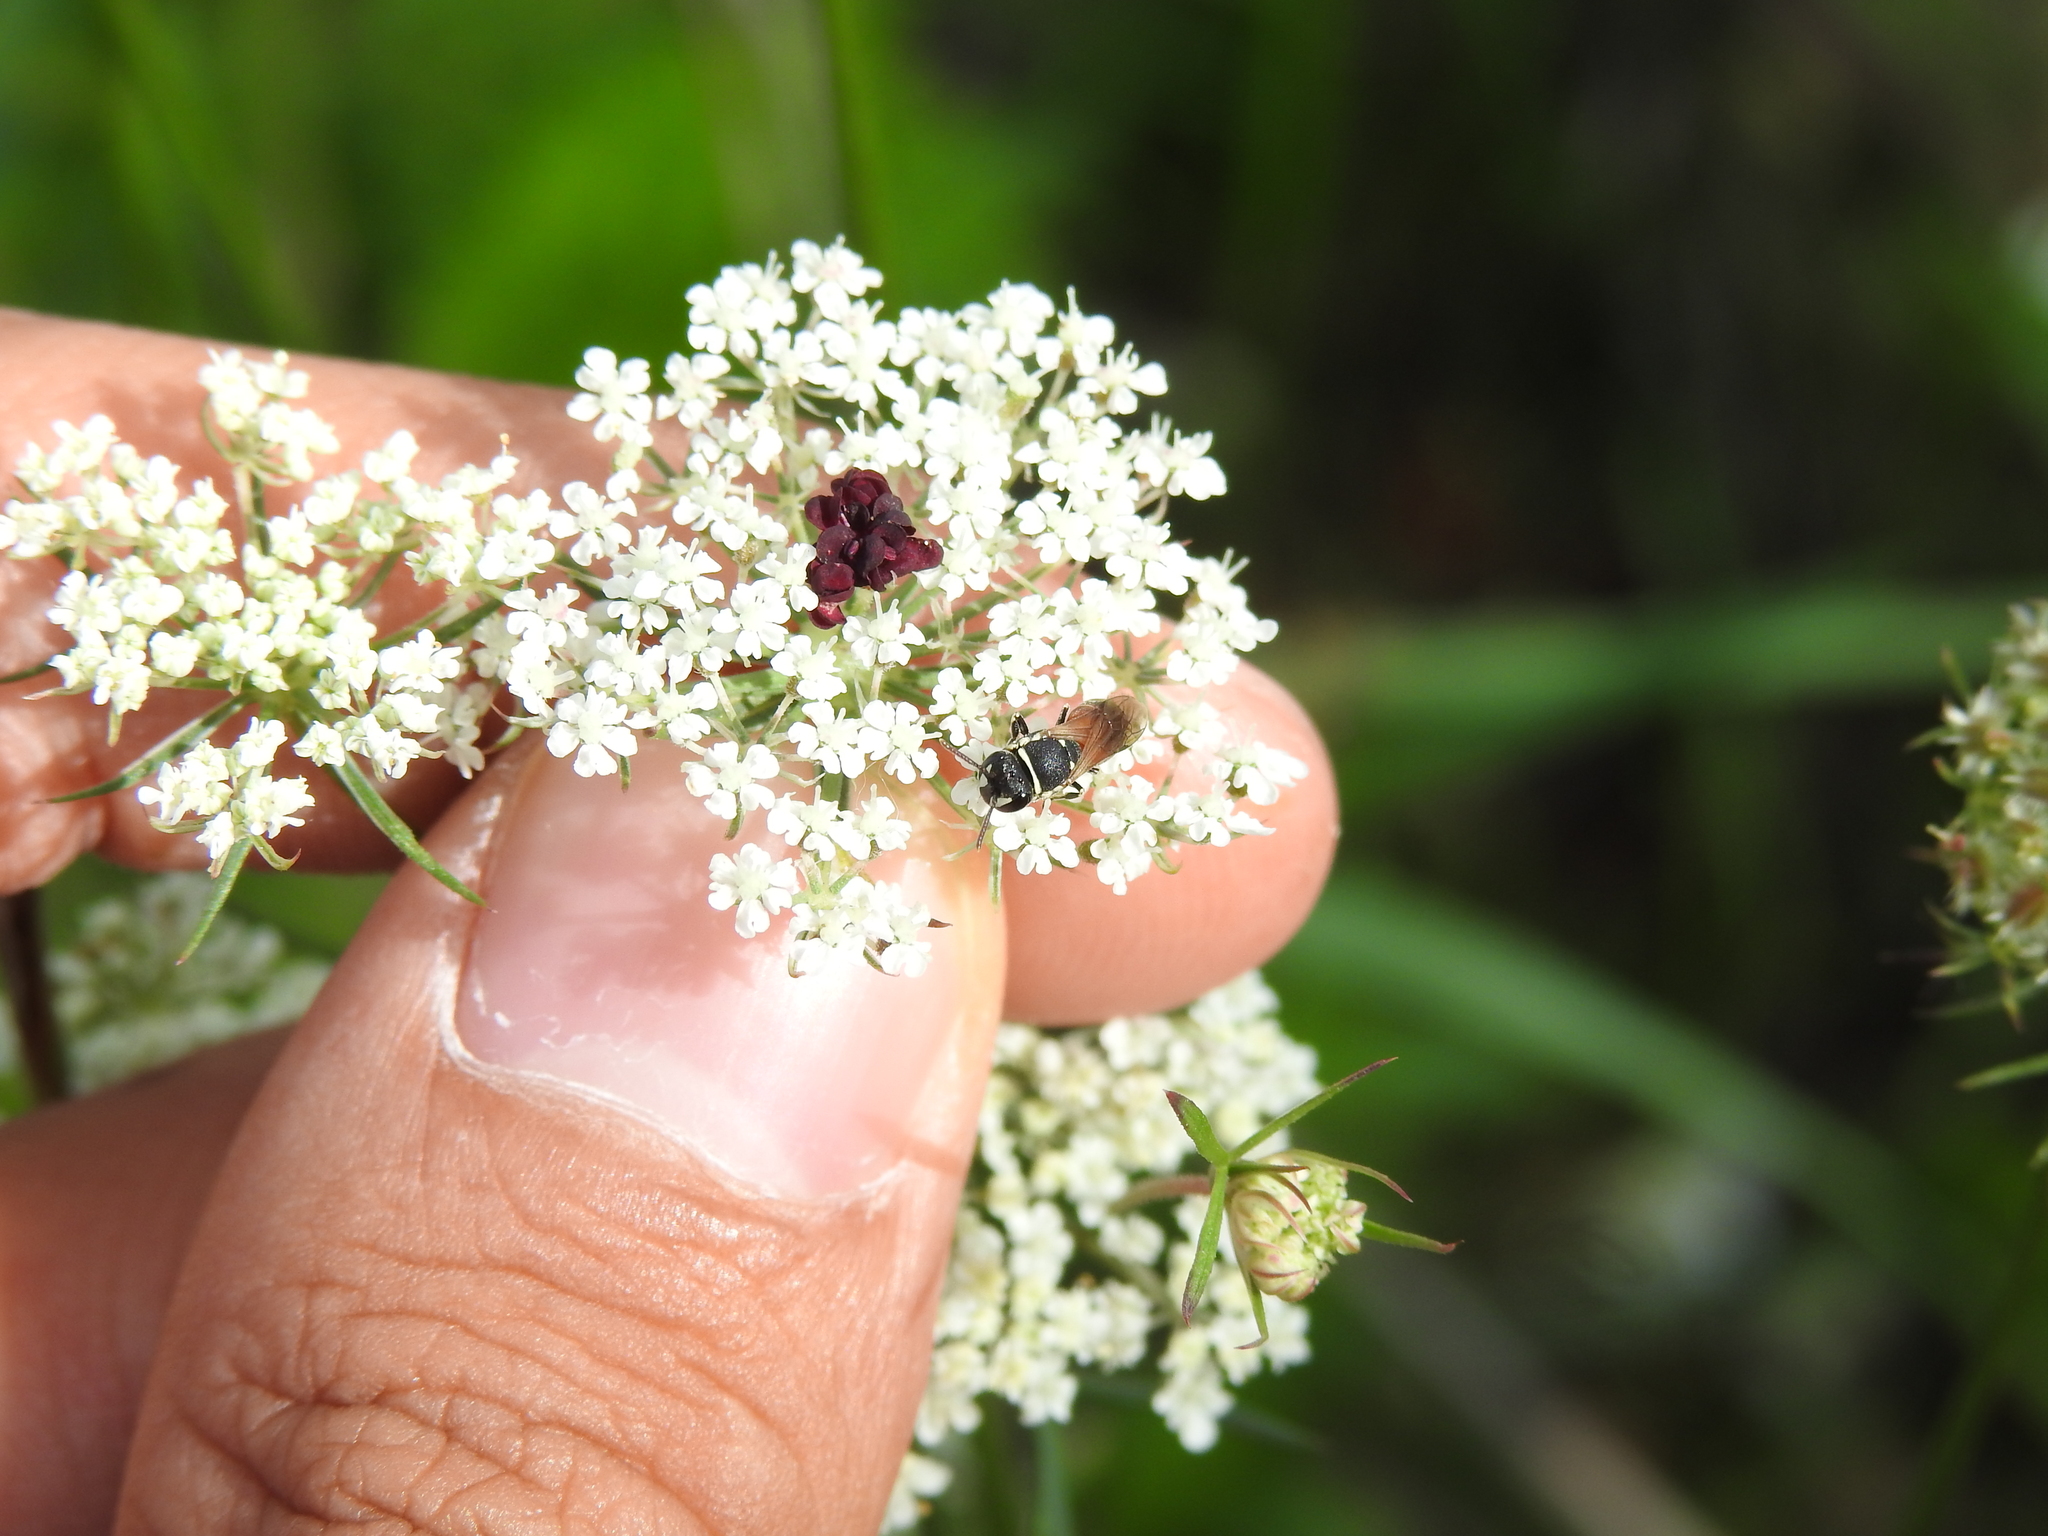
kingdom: Animalia
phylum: Arthropoda
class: Insecta
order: Hymenoptera
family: Colletidae
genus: Hylaeus
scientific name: Hylaeus variegatus
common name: Masked bee
